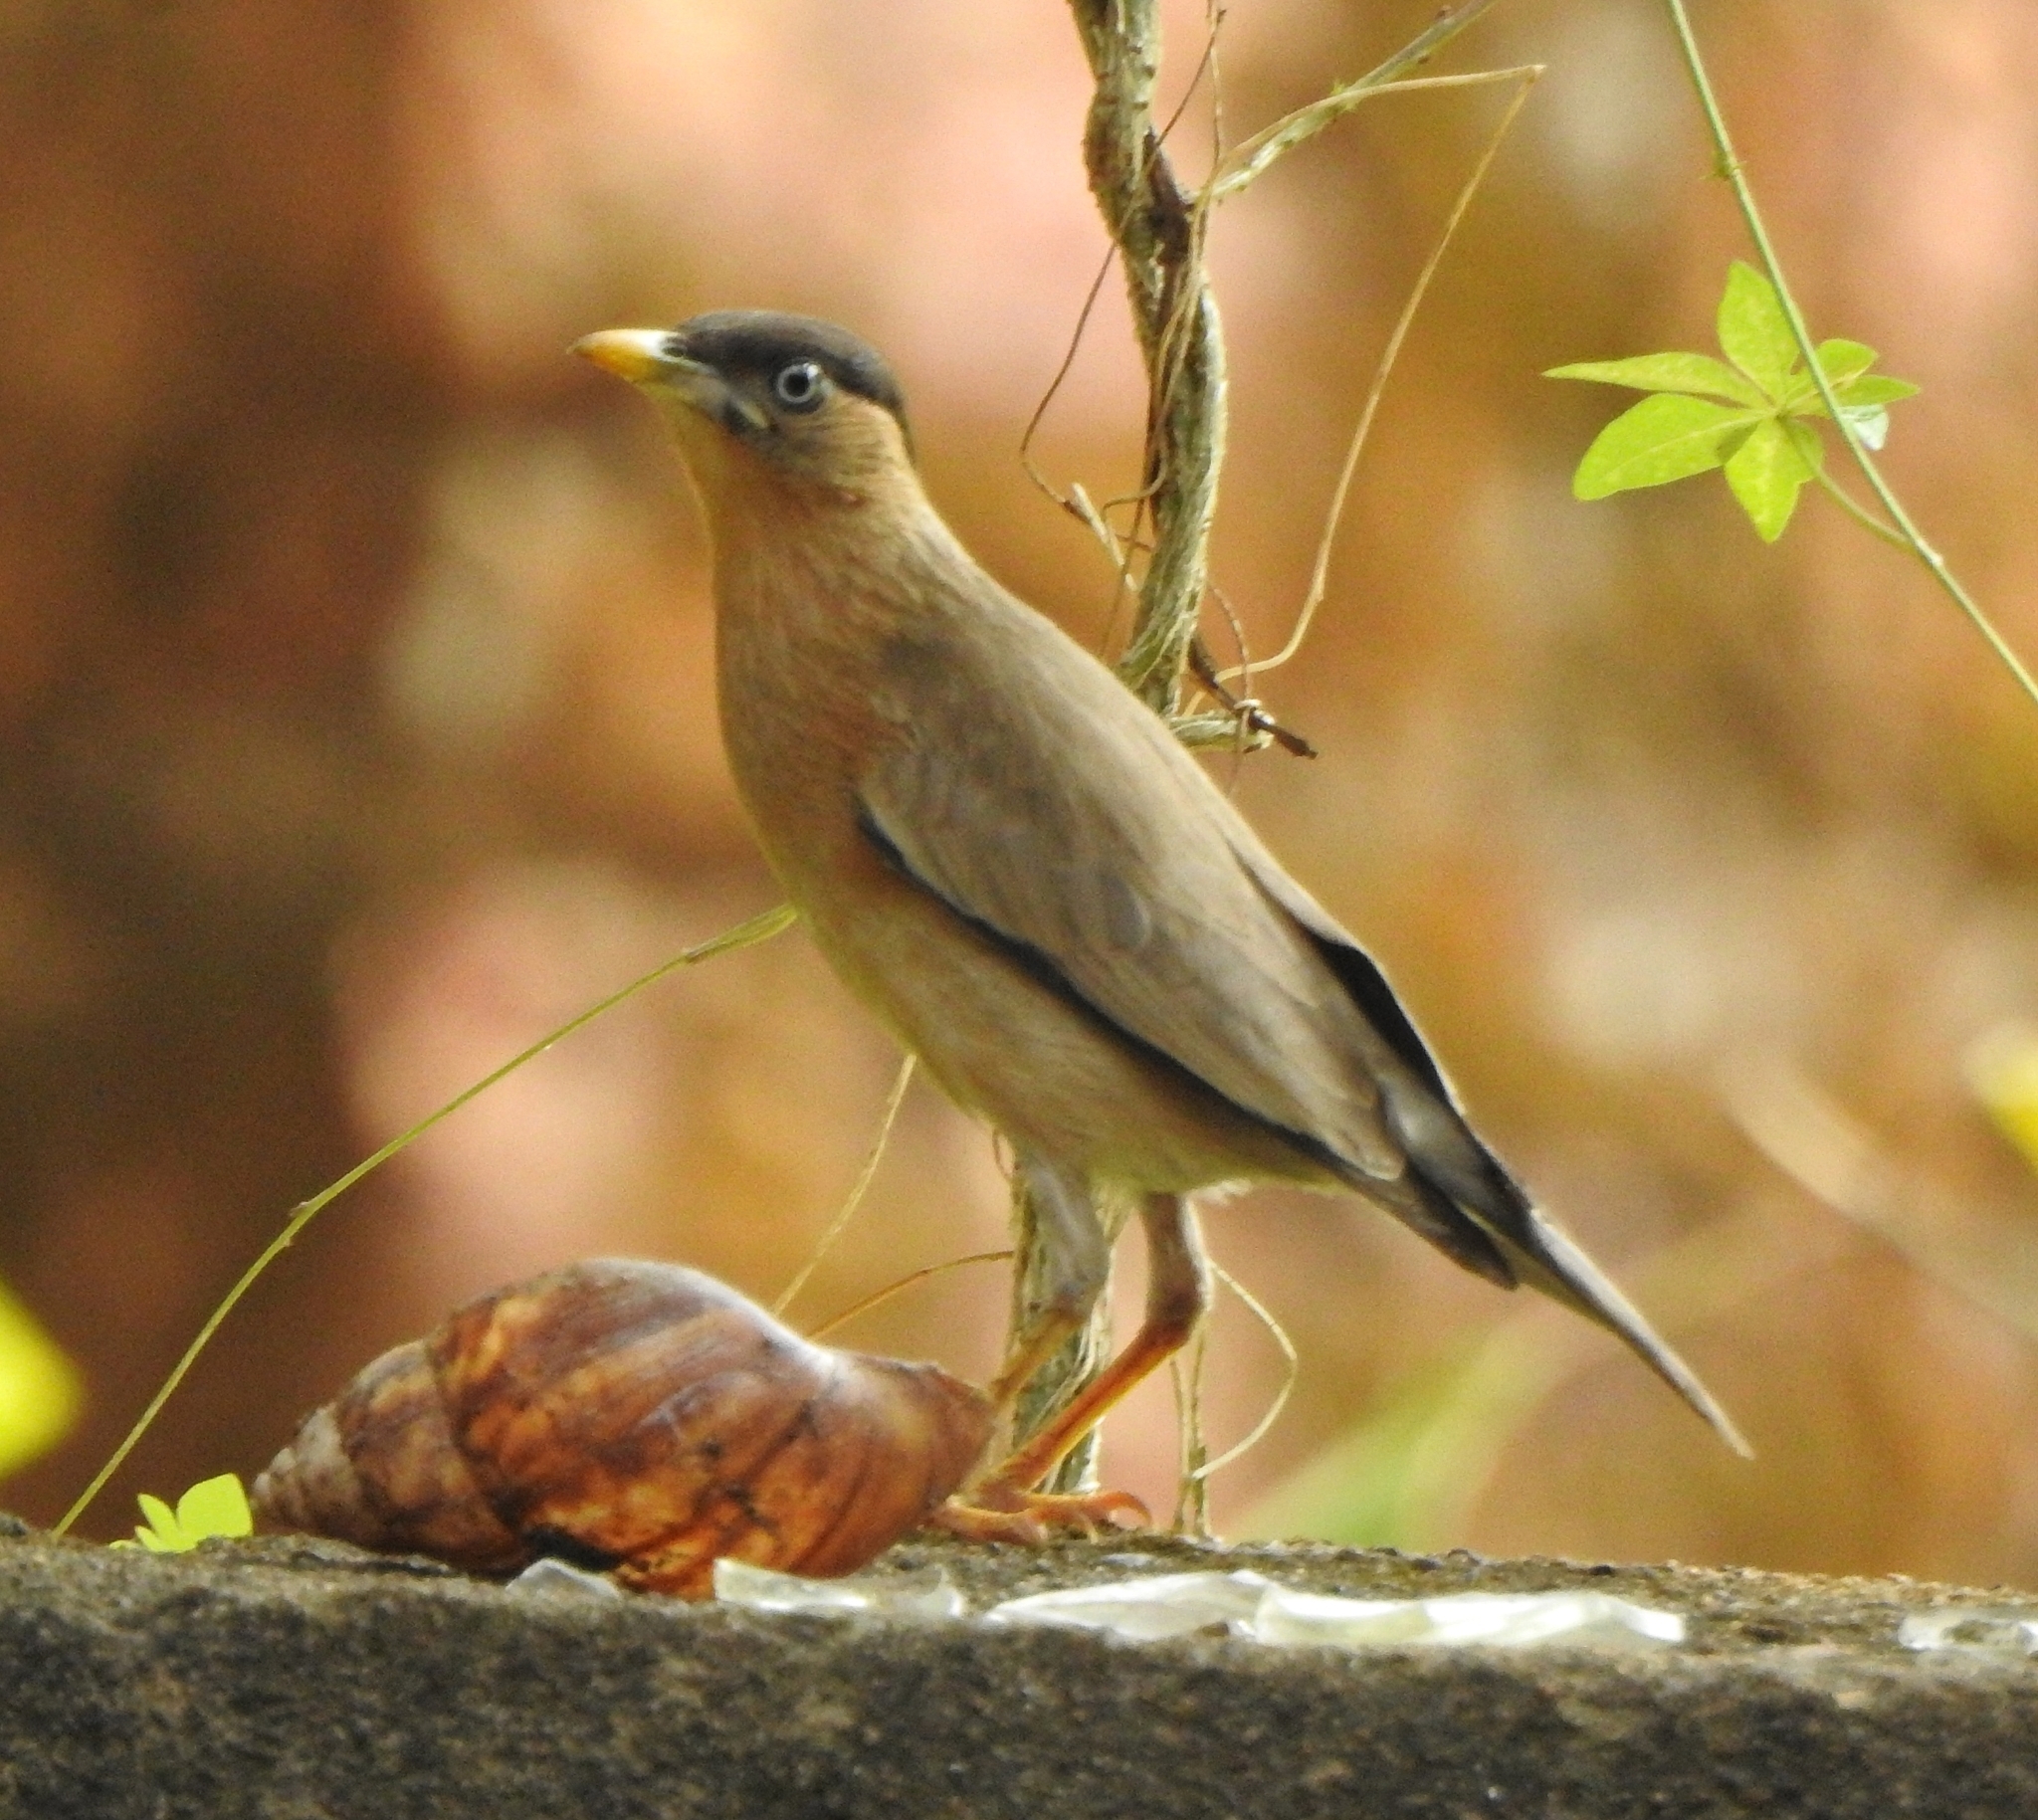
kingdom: Animalia
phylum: Chordata
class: Aves
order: Passeriformes
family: Sturnidae
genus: Sturnia
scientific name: Sturnia pagodarum
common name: Brahminy starling
